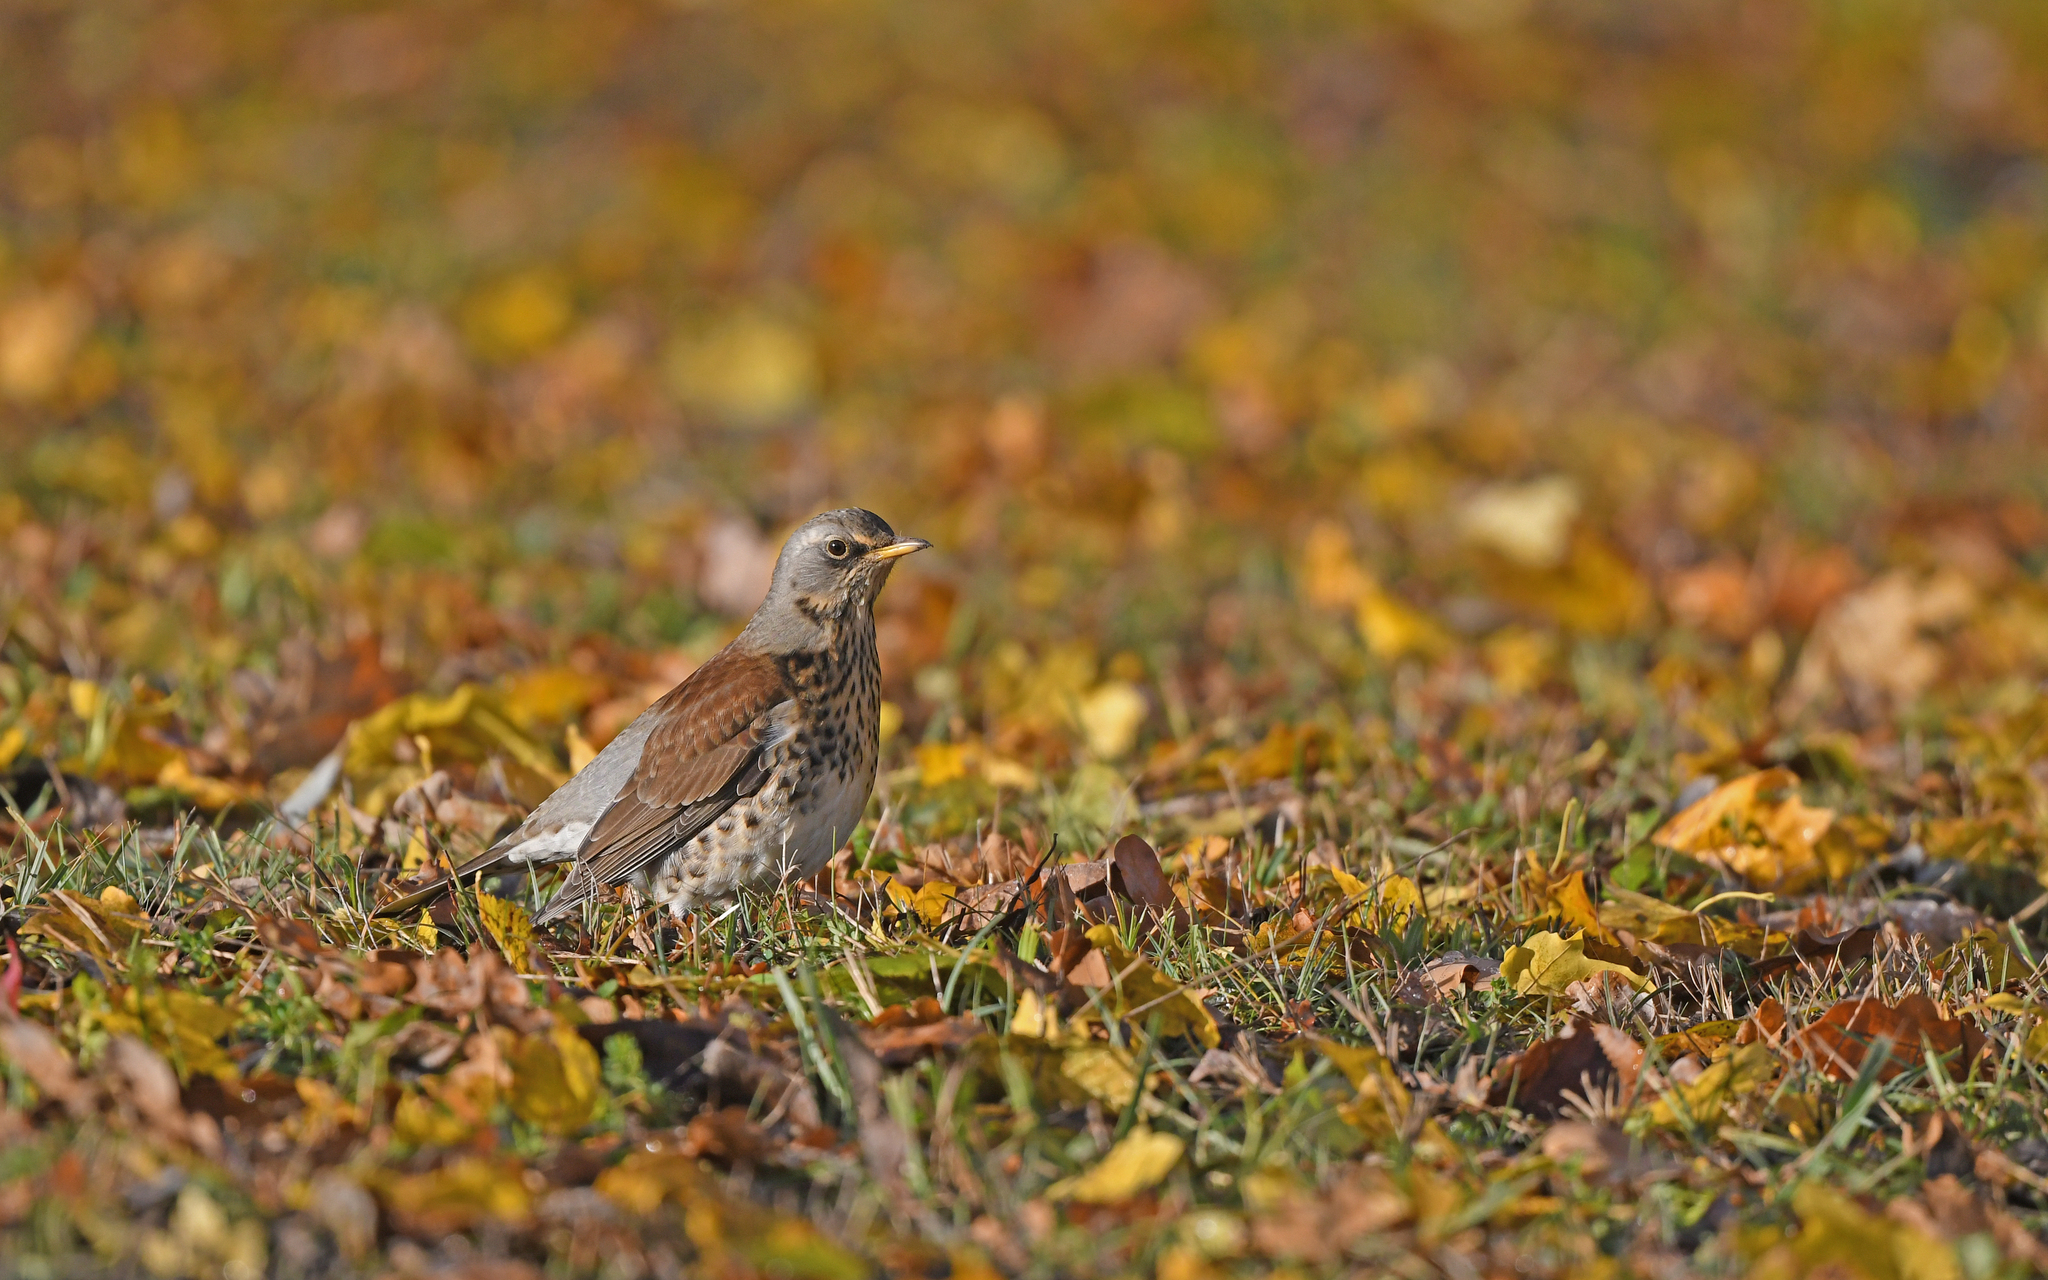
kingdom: Animalia
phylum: Chordata
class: Aves
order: Passeriformes
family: Turdidae
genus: Turdus
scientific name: Turdus pilaris
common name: Fieldfare
